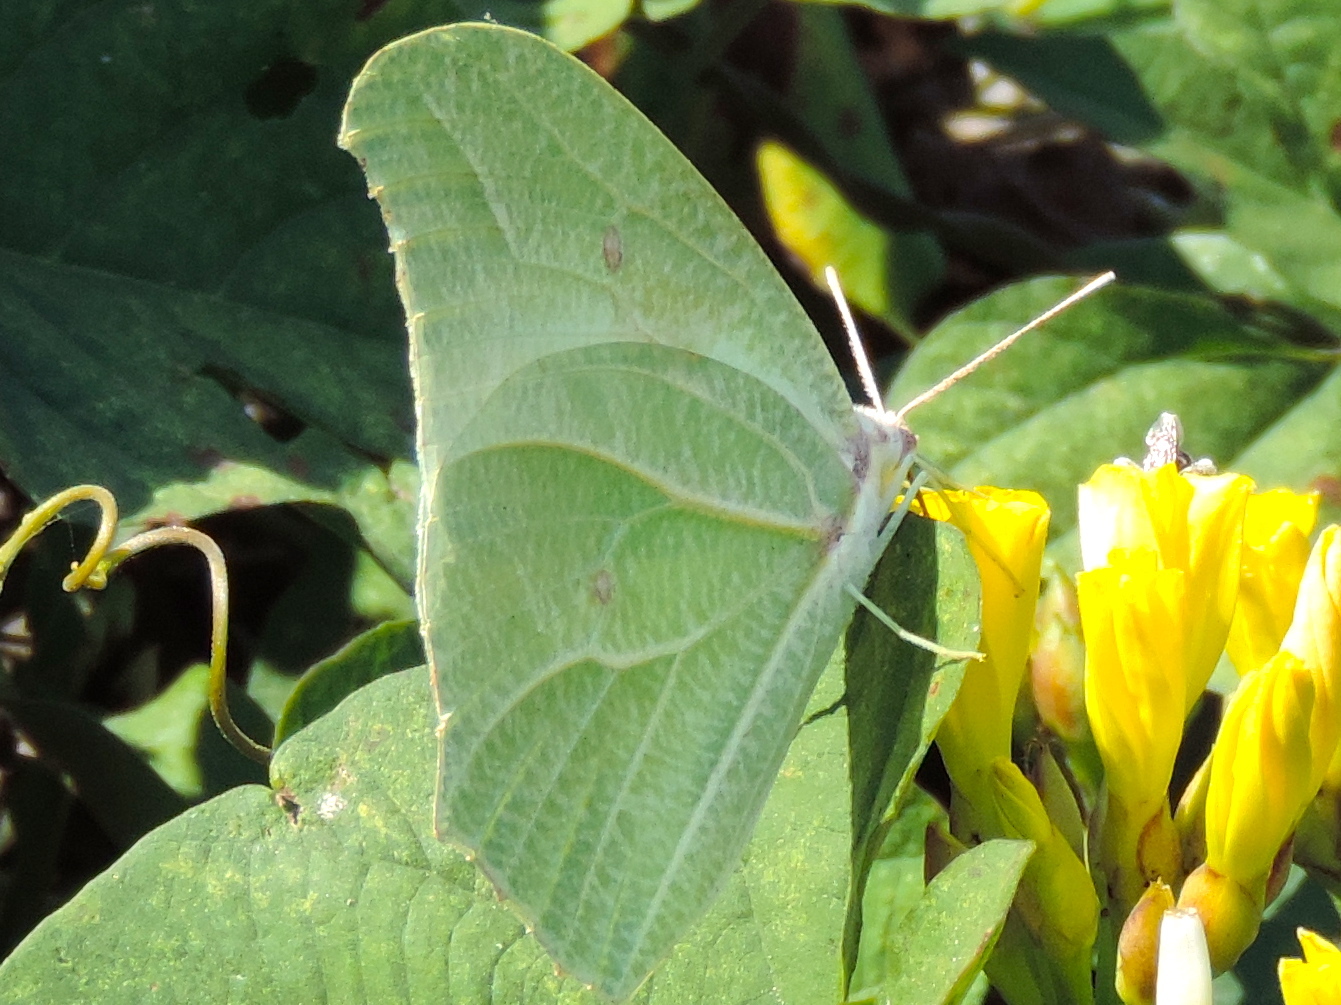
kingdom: Animalia
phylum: Arthropoda
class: Insecta
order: Lepidoptera
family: Pieridae
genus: Anteos
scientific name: Anteos clorinde
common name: White angled sulphur
